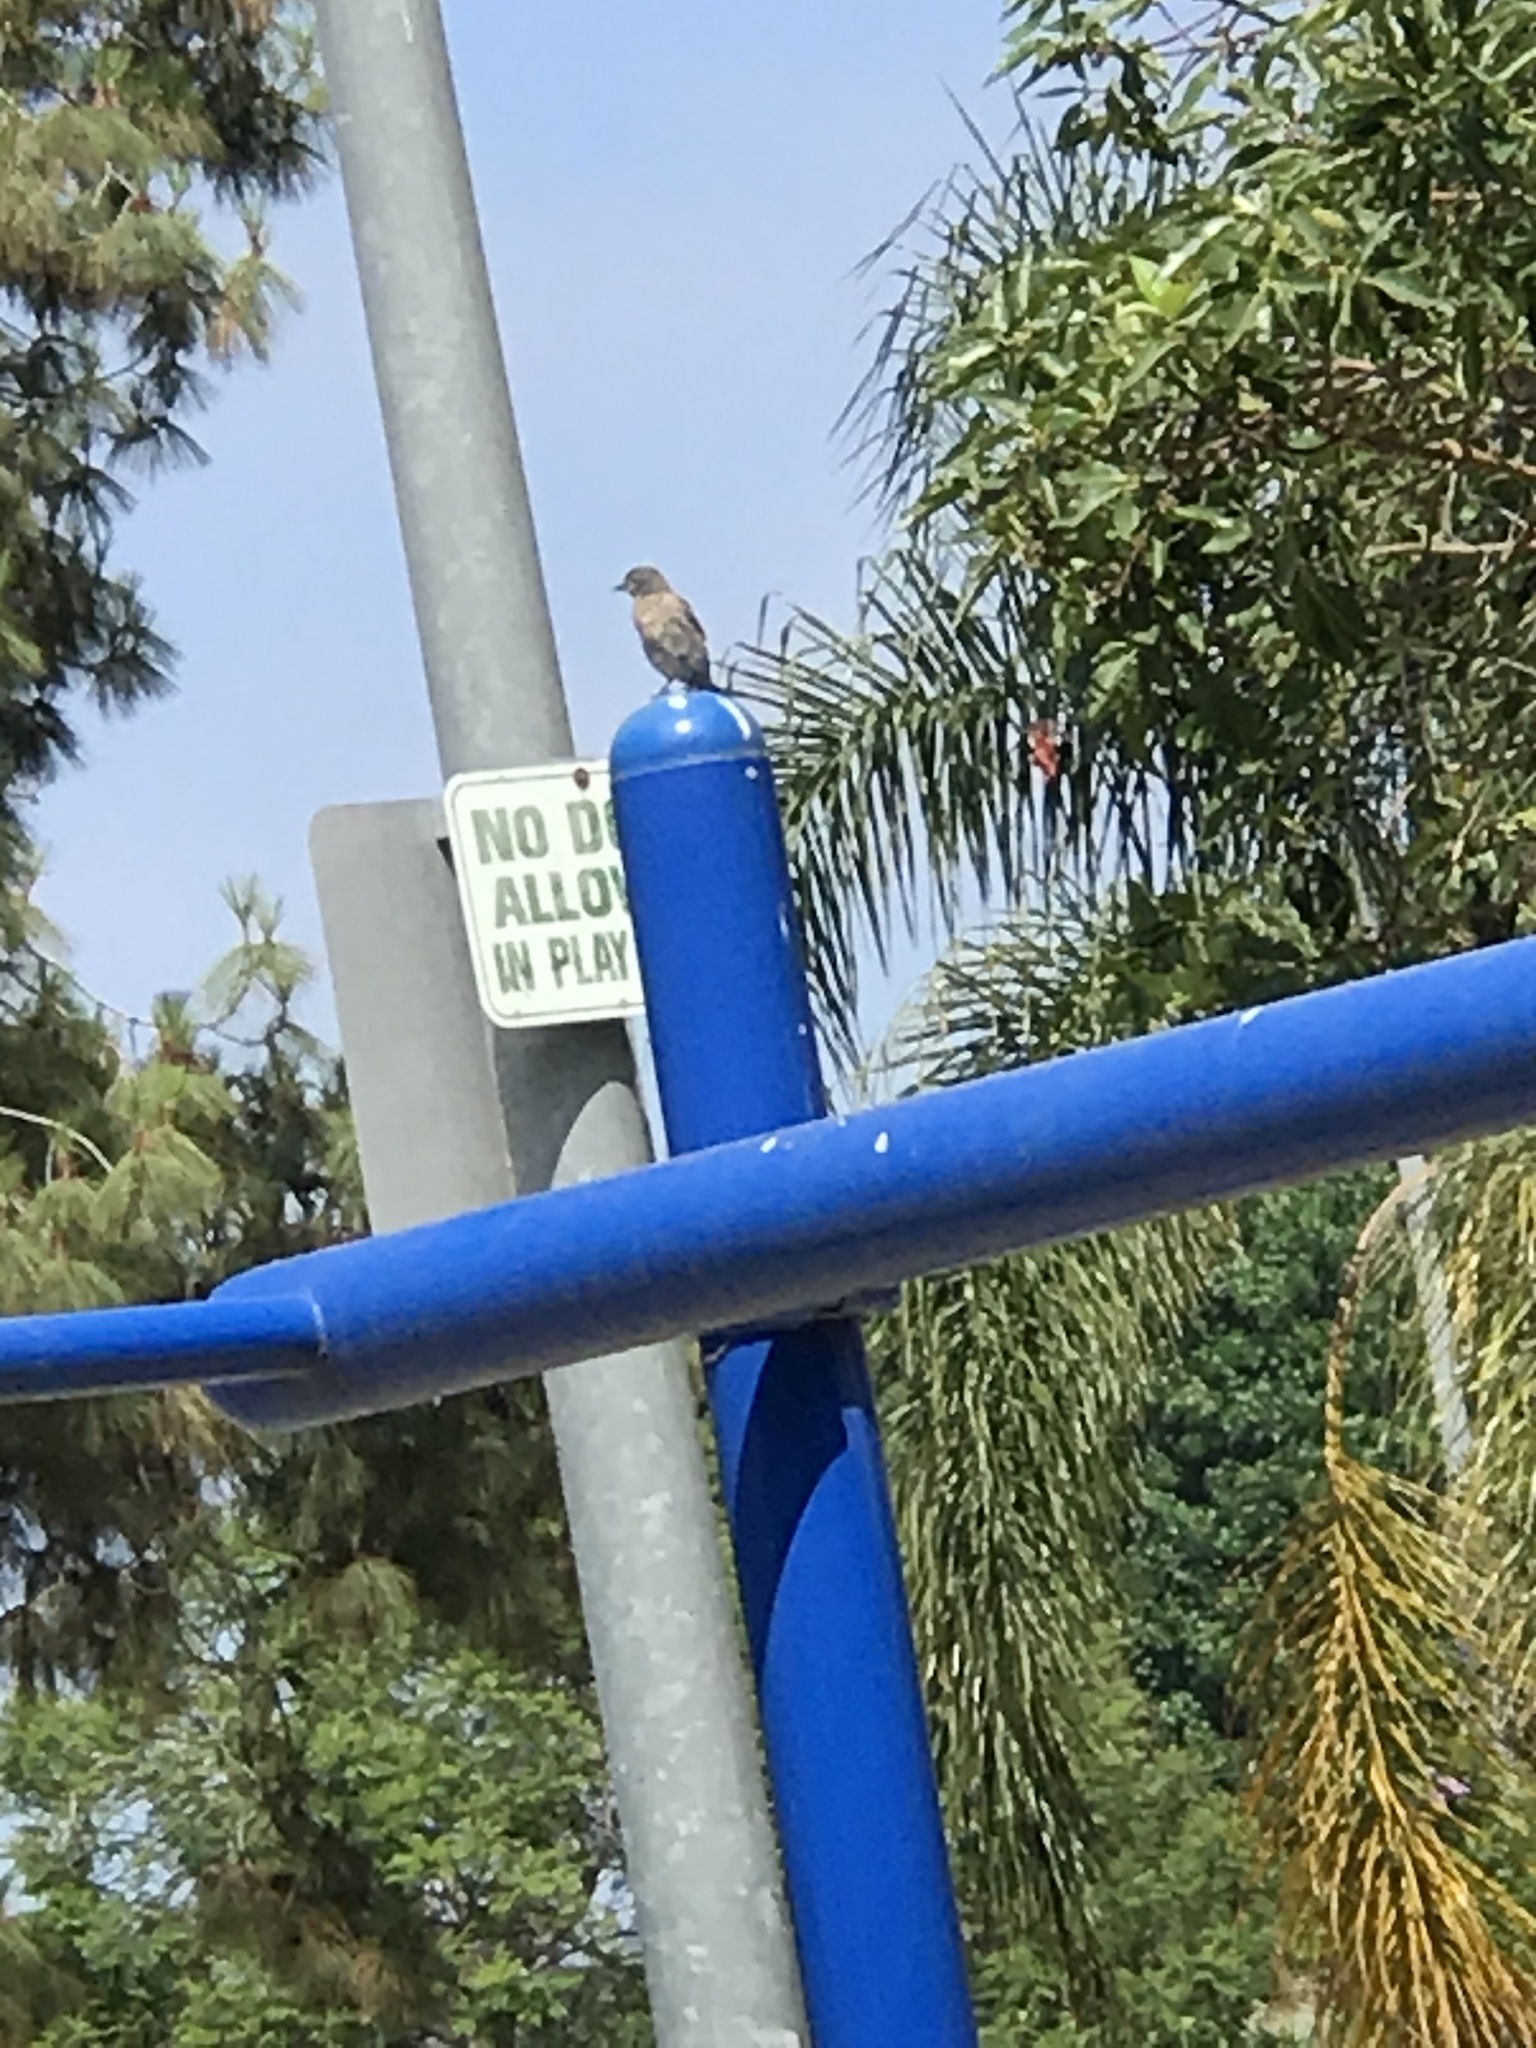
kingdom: Animalia
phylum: Chordata
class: Aves
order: Passeriformes
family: Turdidae
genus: Sialia
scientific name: Sialia mexicana
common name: Western bluebird
